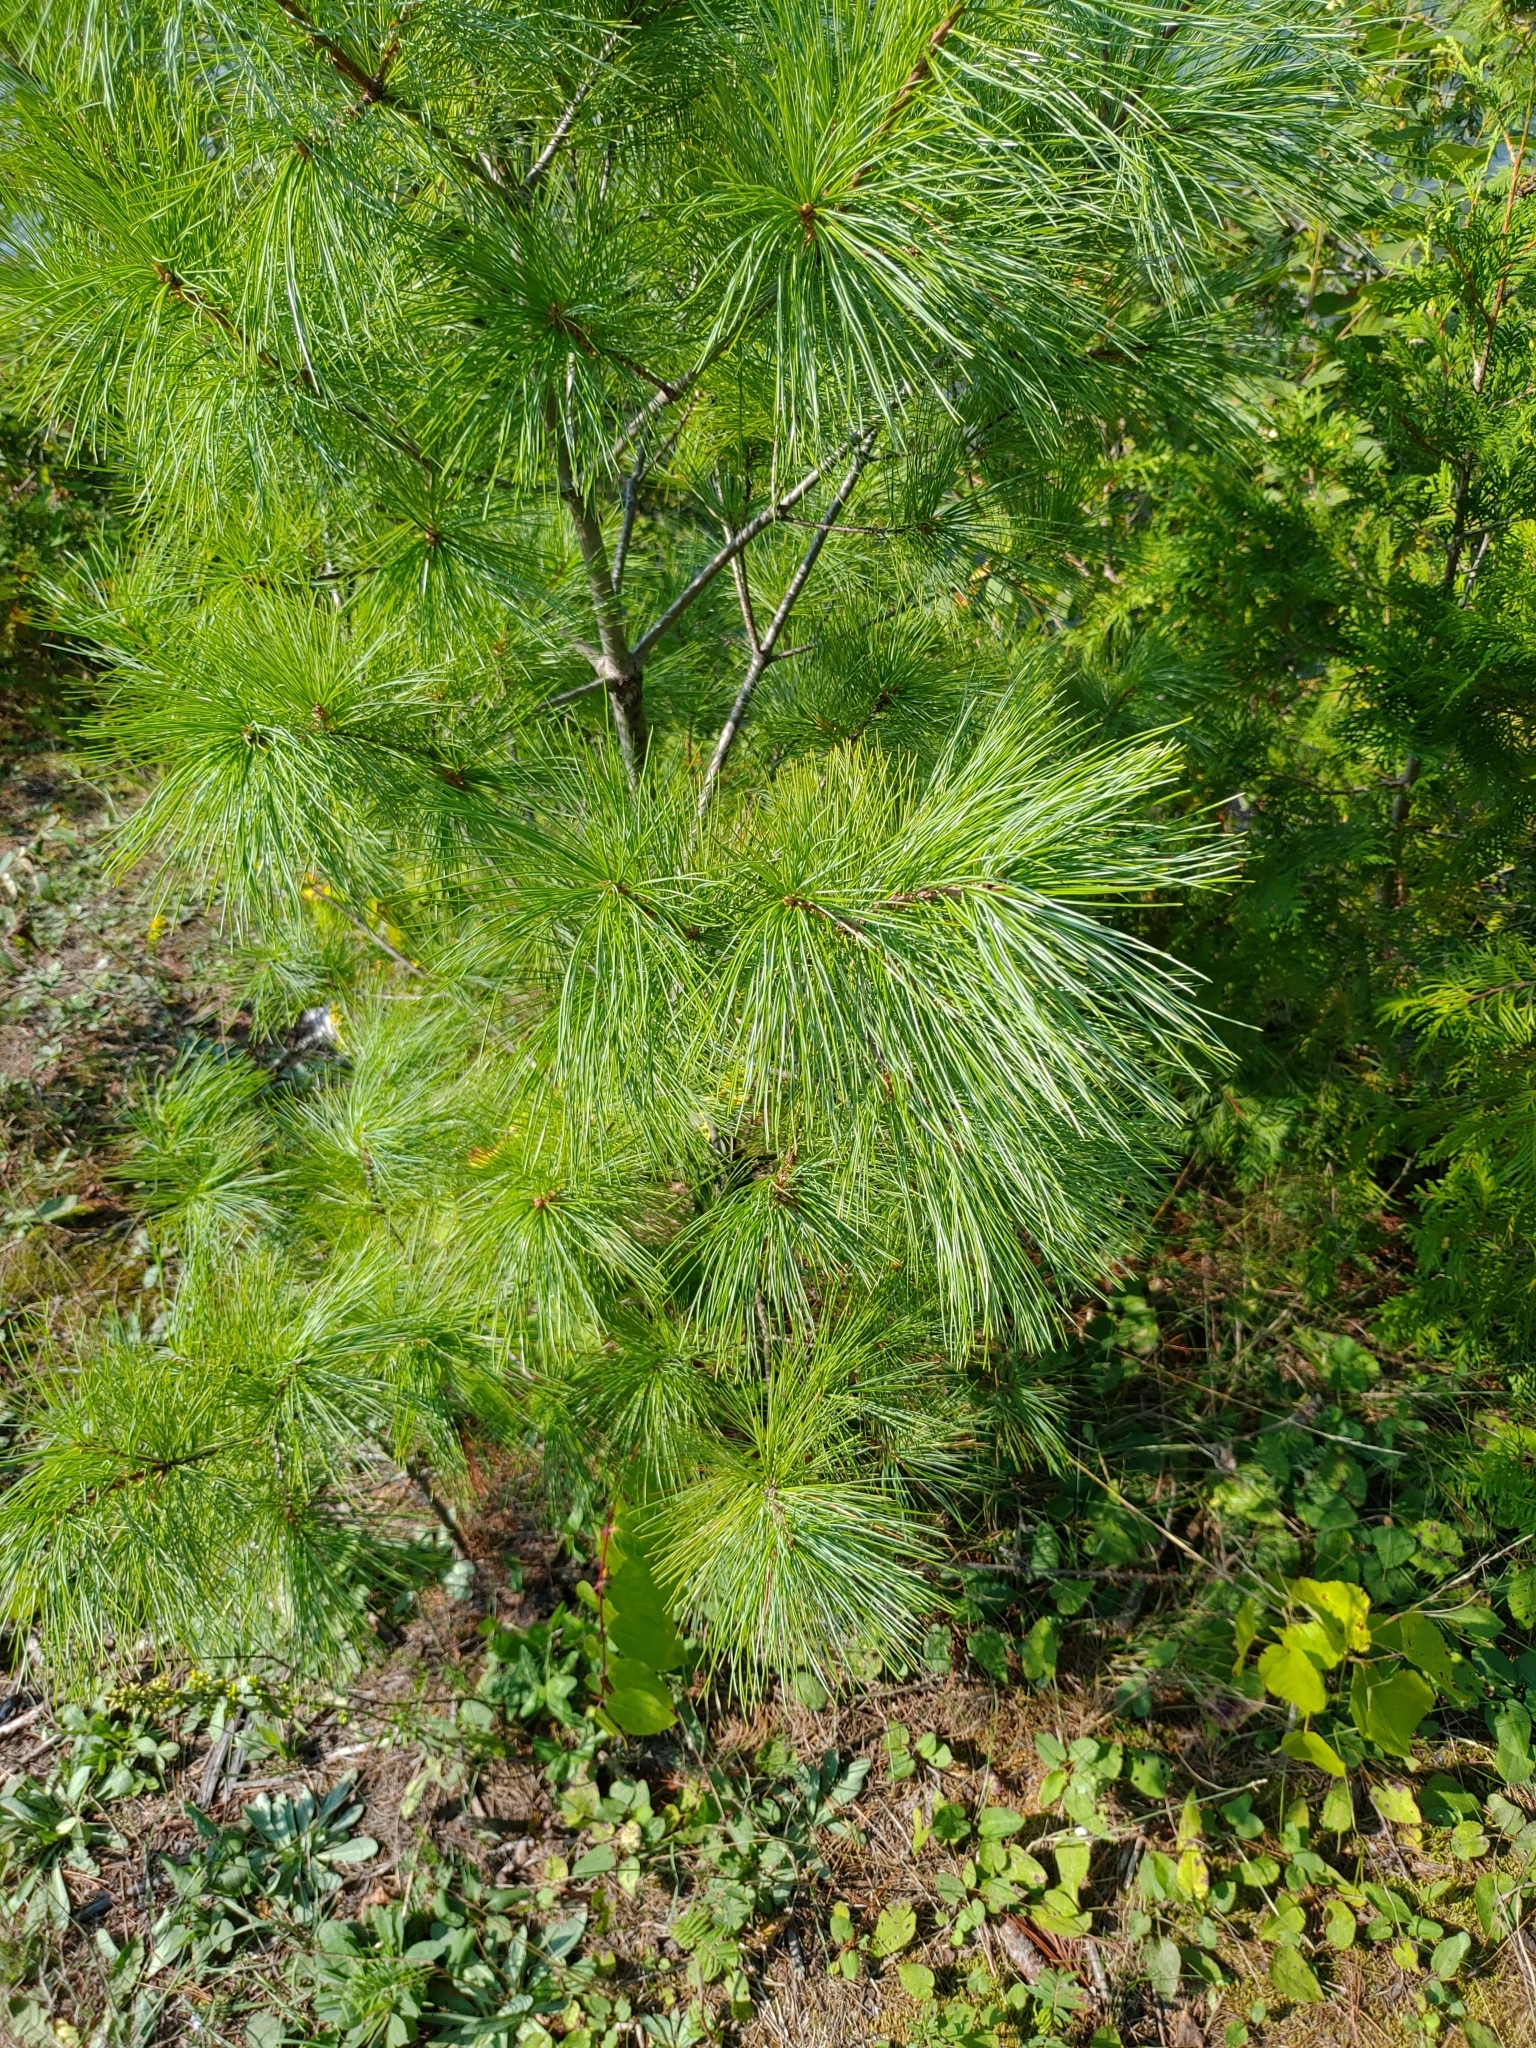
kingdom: Plantae
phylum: Tracheophyta
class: Pinopsida
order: Pinales
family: Pinaceae
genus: Pinus
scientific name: Pinus strobus
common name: Weymouth pine
